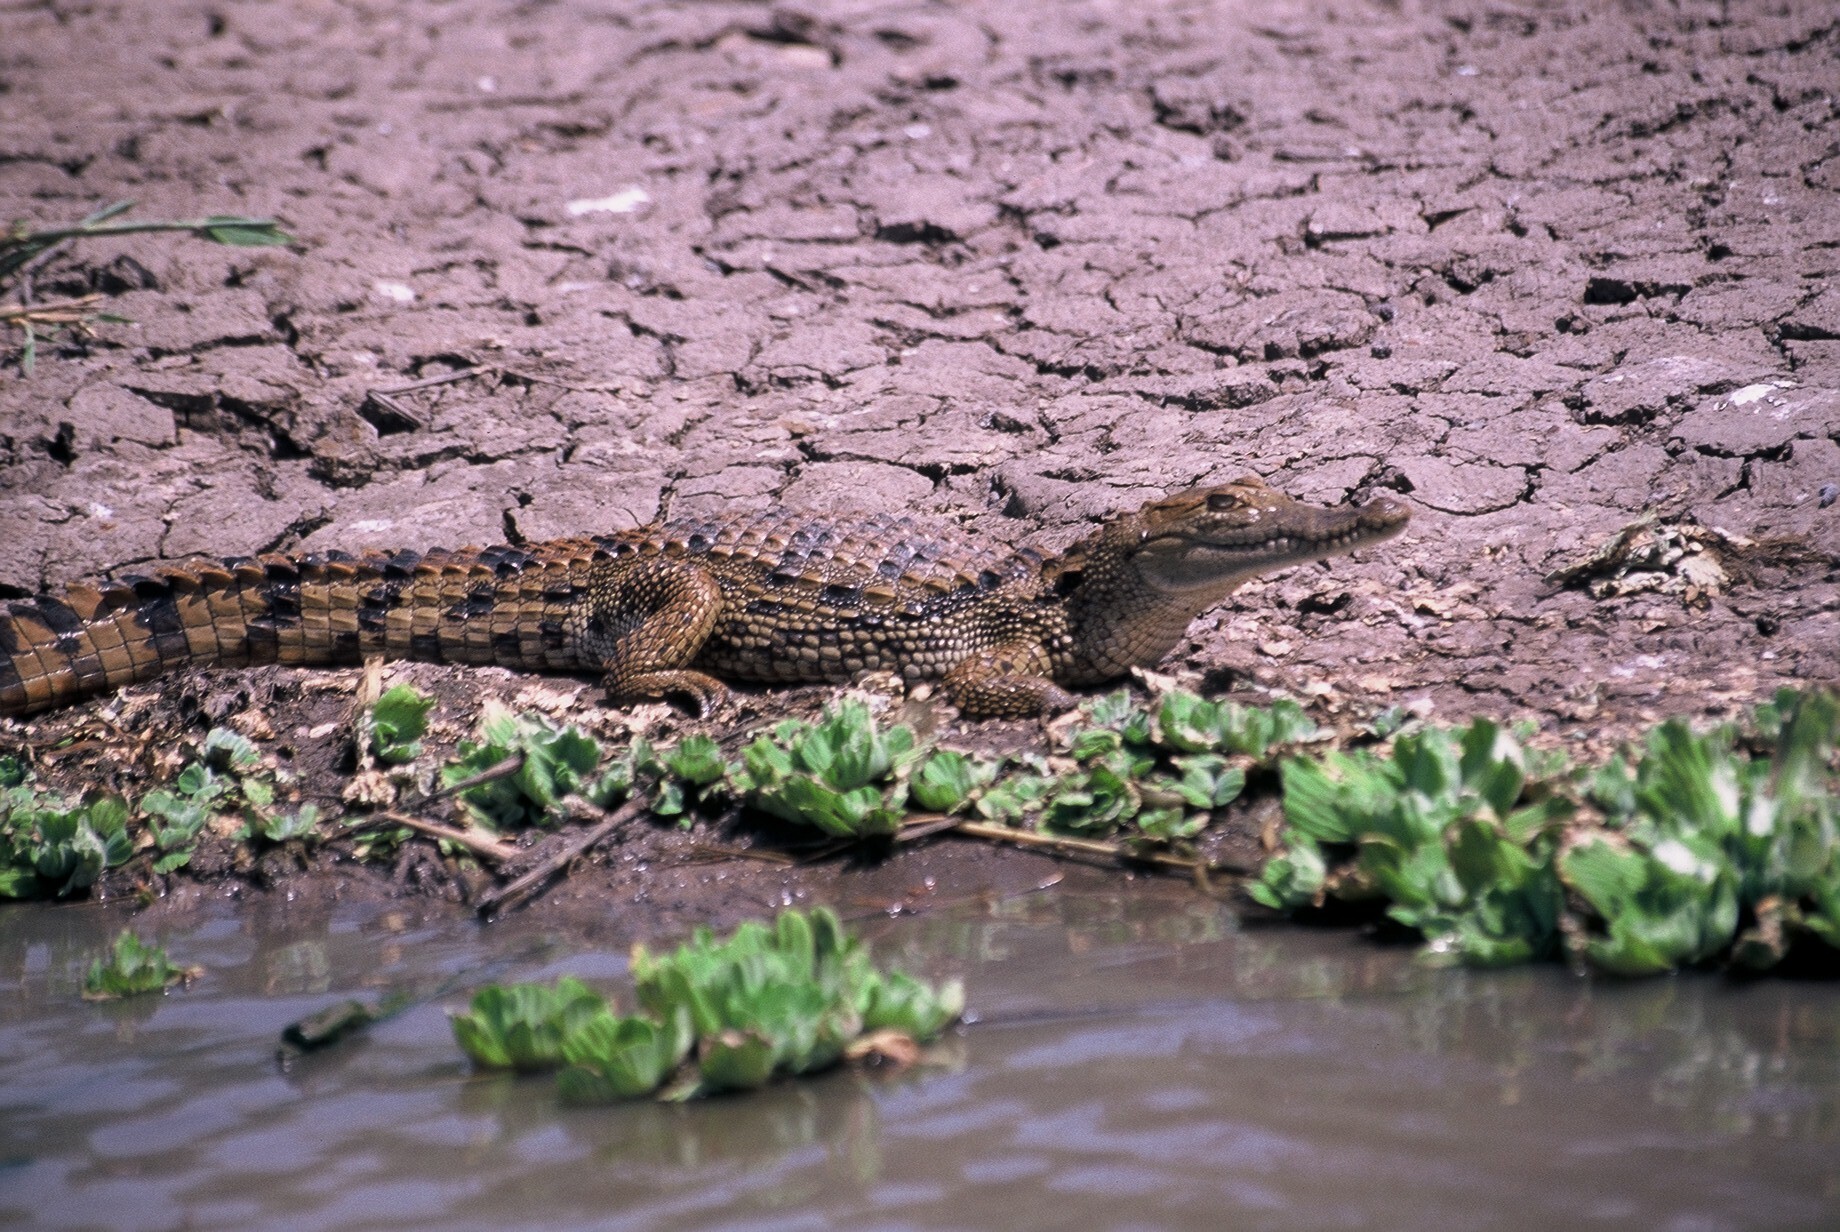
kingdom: Animalia
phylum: Chordata
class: Crocodylia
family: Crocodylidae
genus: Crocodylus
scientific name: Crocodylus suchus
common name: West african crocodile
